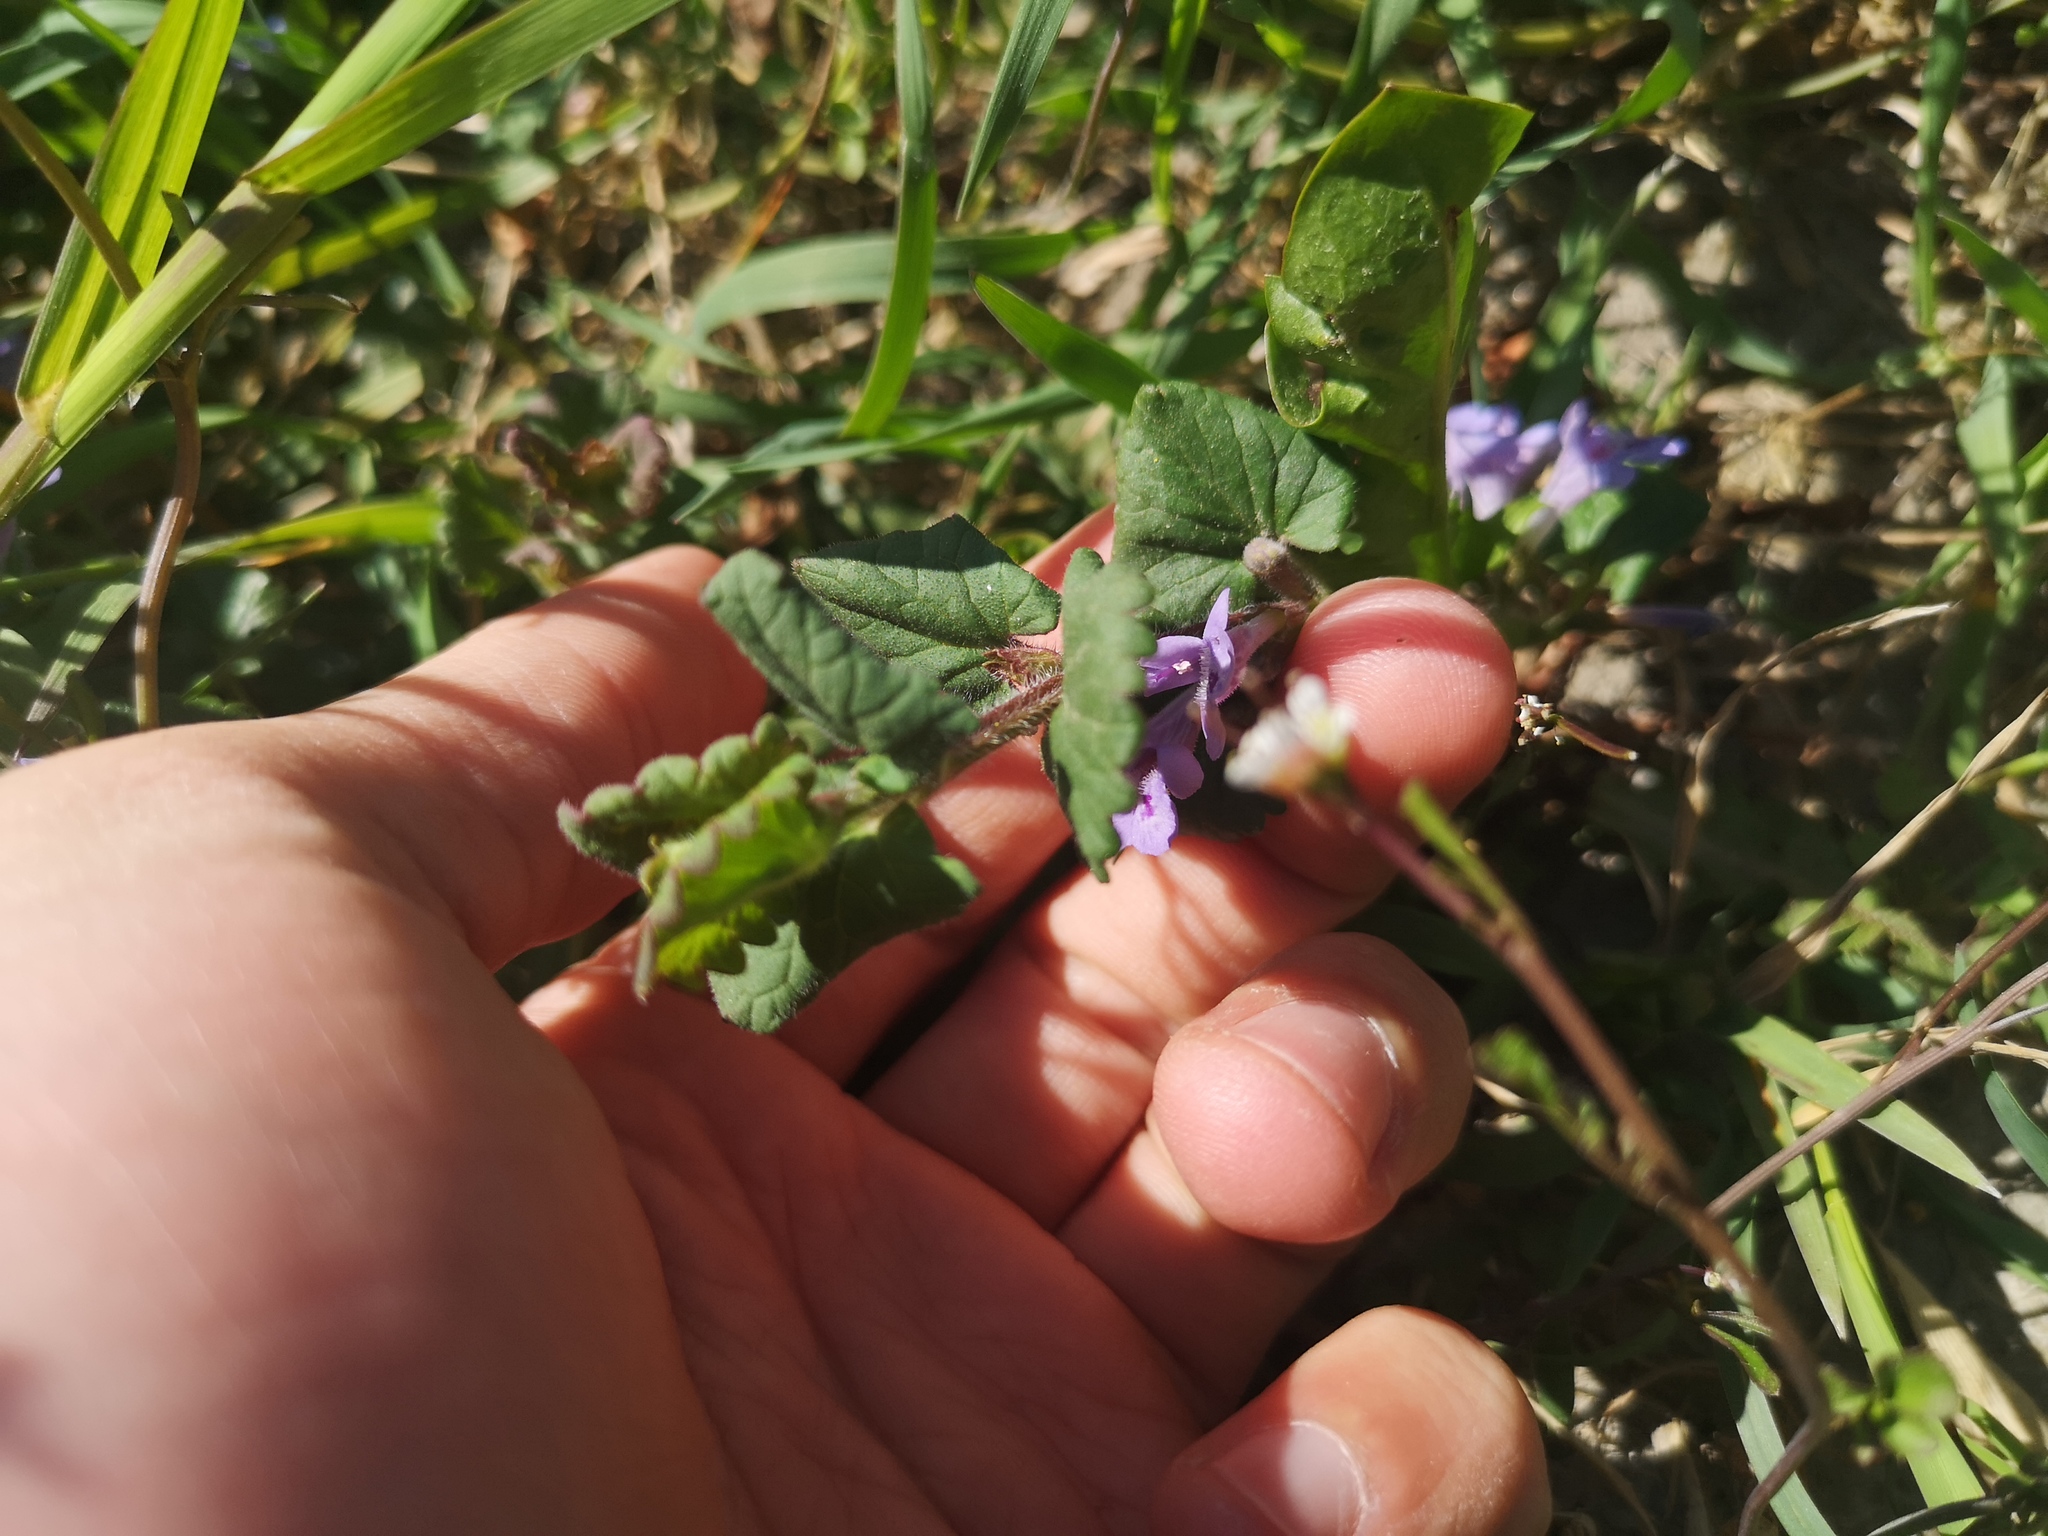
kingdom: Plantae
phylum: Tracheophyta
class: Magnoliopsida
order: Lamiales
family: Lamiaceae
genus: Glechoma
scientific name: Glechoma hederacea
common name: Ground ivy
